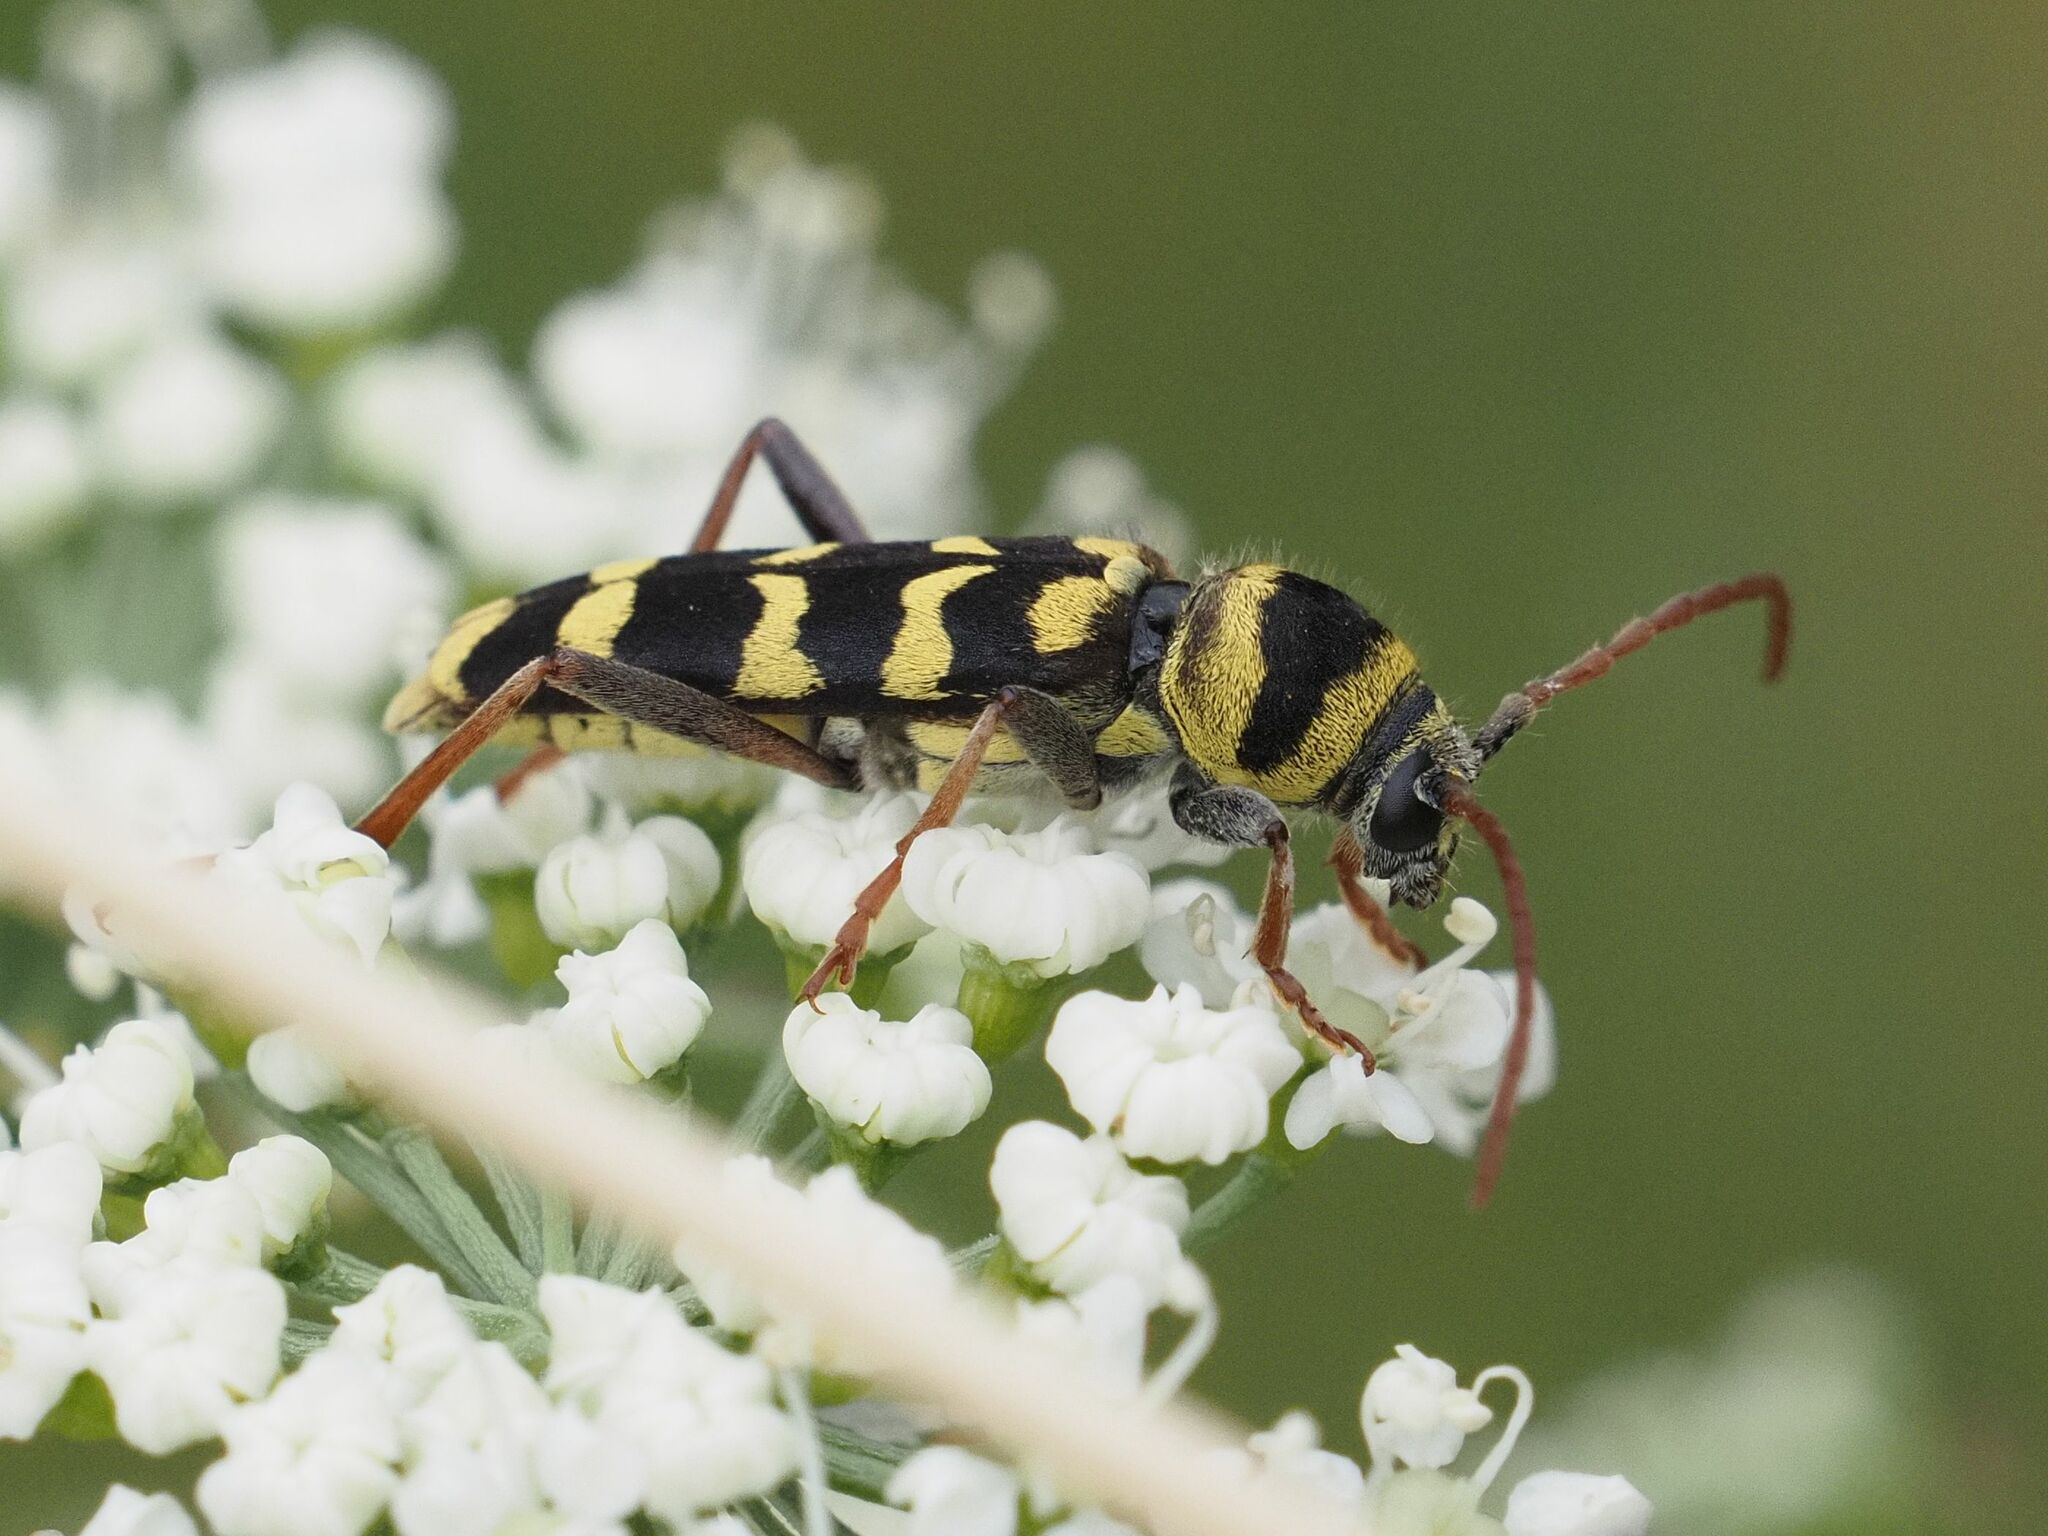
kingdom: Animalia
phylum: Arthropoda
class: Insecta
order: Coleoptera
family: Cerambycidae
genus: Plagionotus
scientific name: Plagionotus floralis
